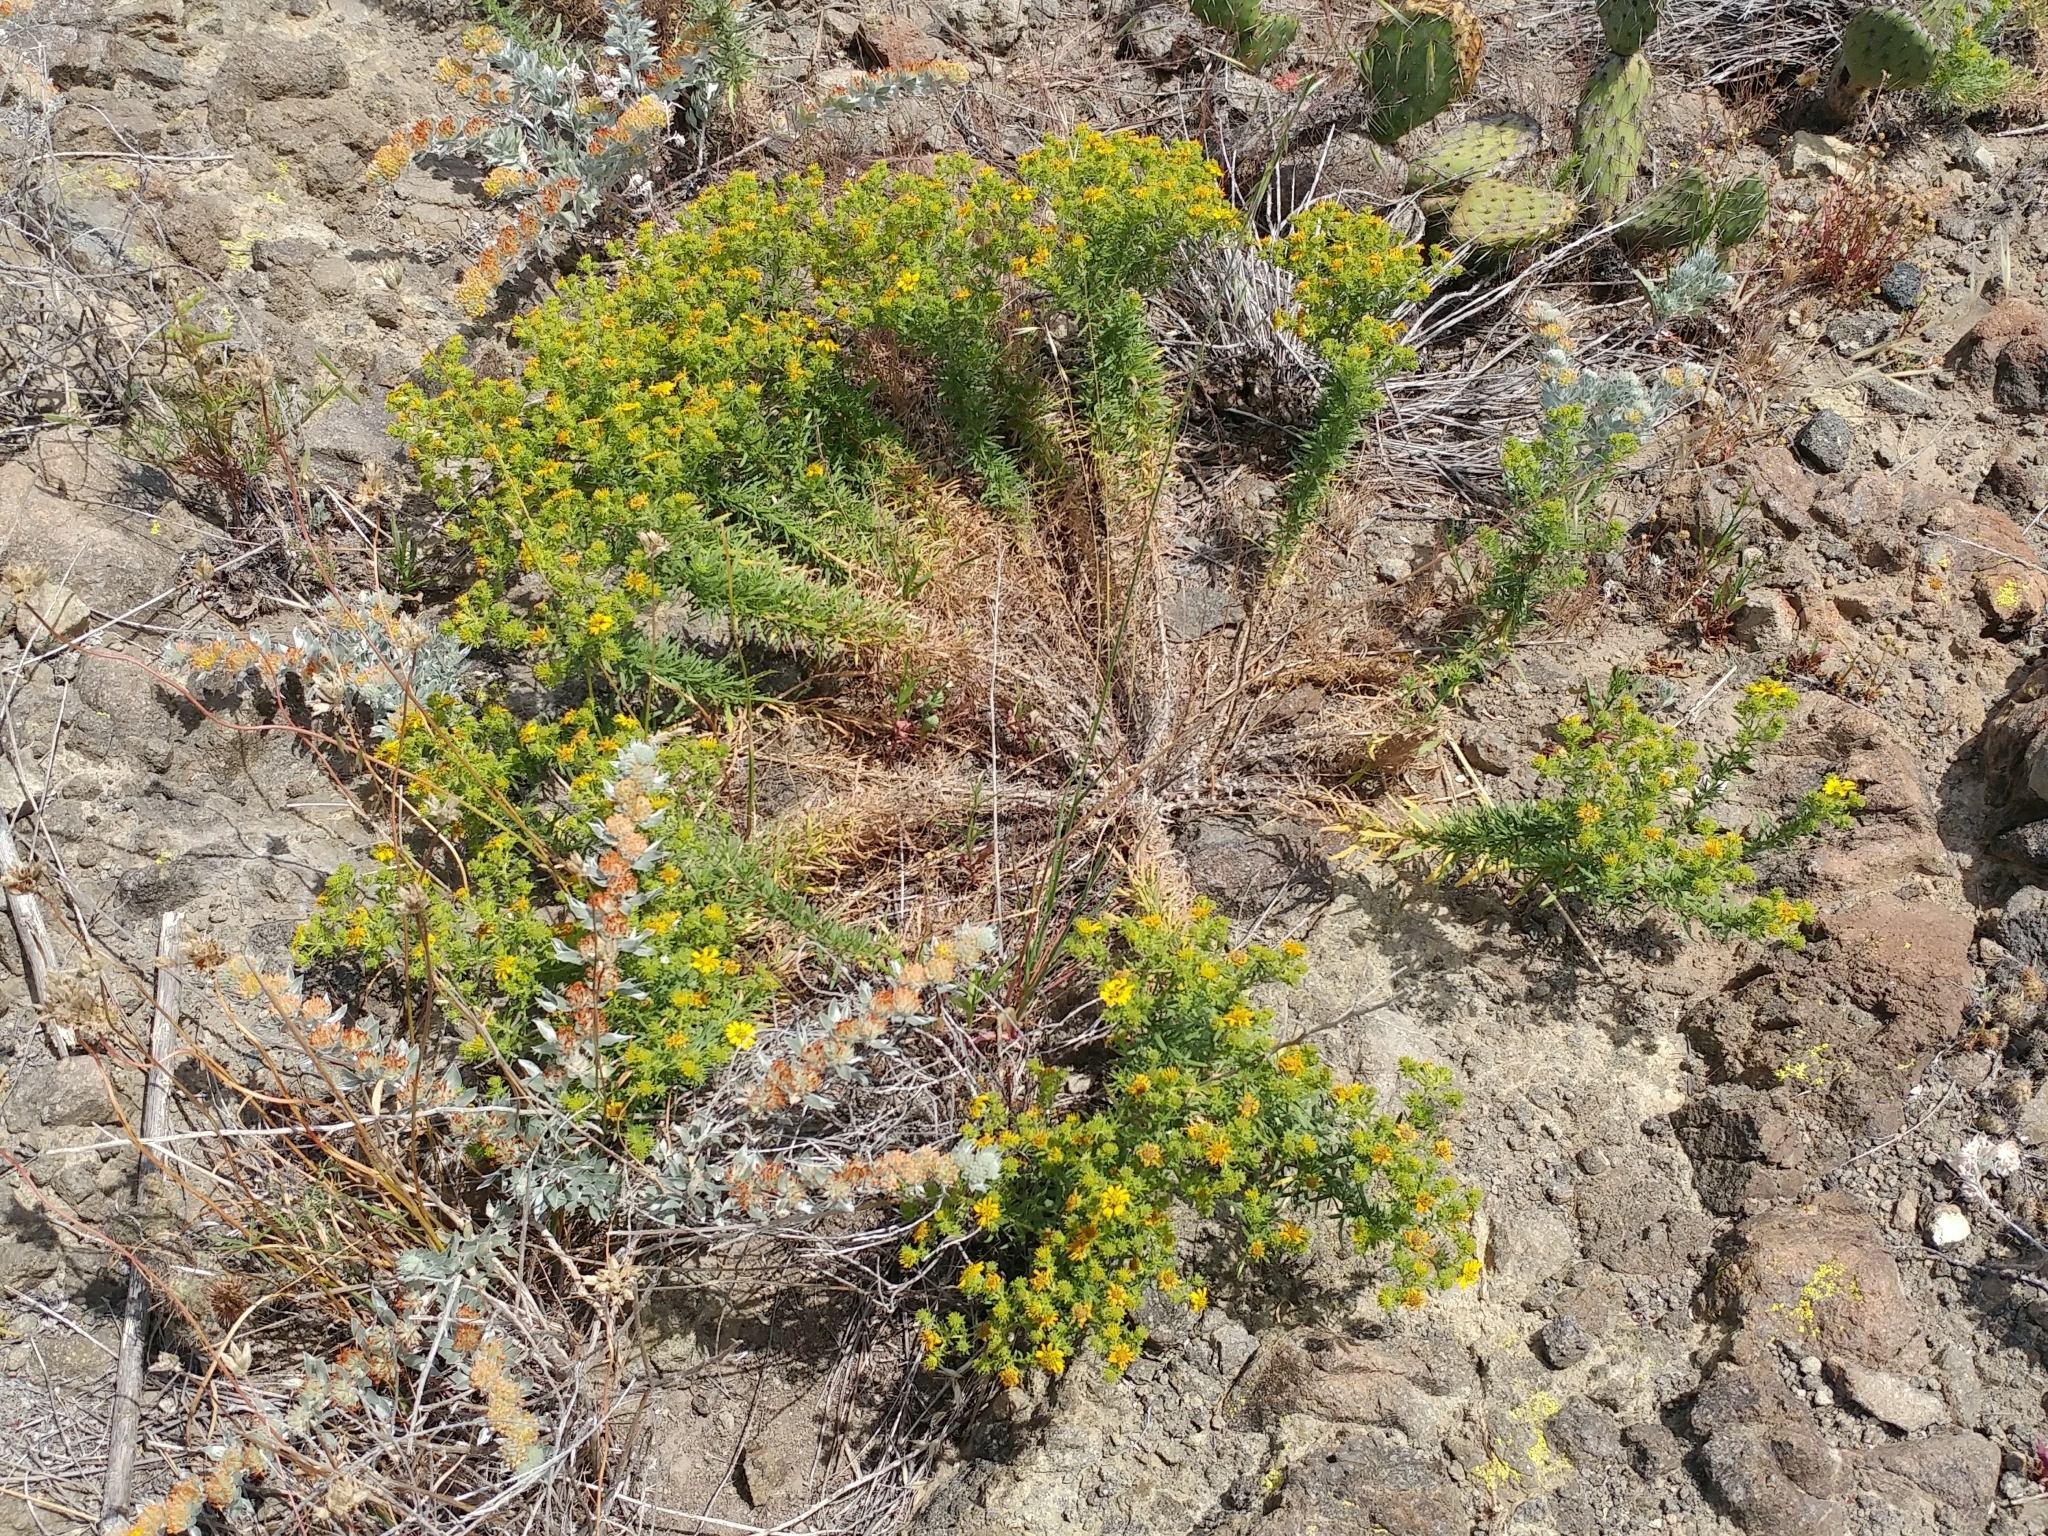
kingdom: Plantae
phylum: Tracheophyta
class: Magnoliopsida
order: Asterales
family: Asteraceae
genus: Deinandra
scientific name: Deinandra clementina
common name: Island tarplant
